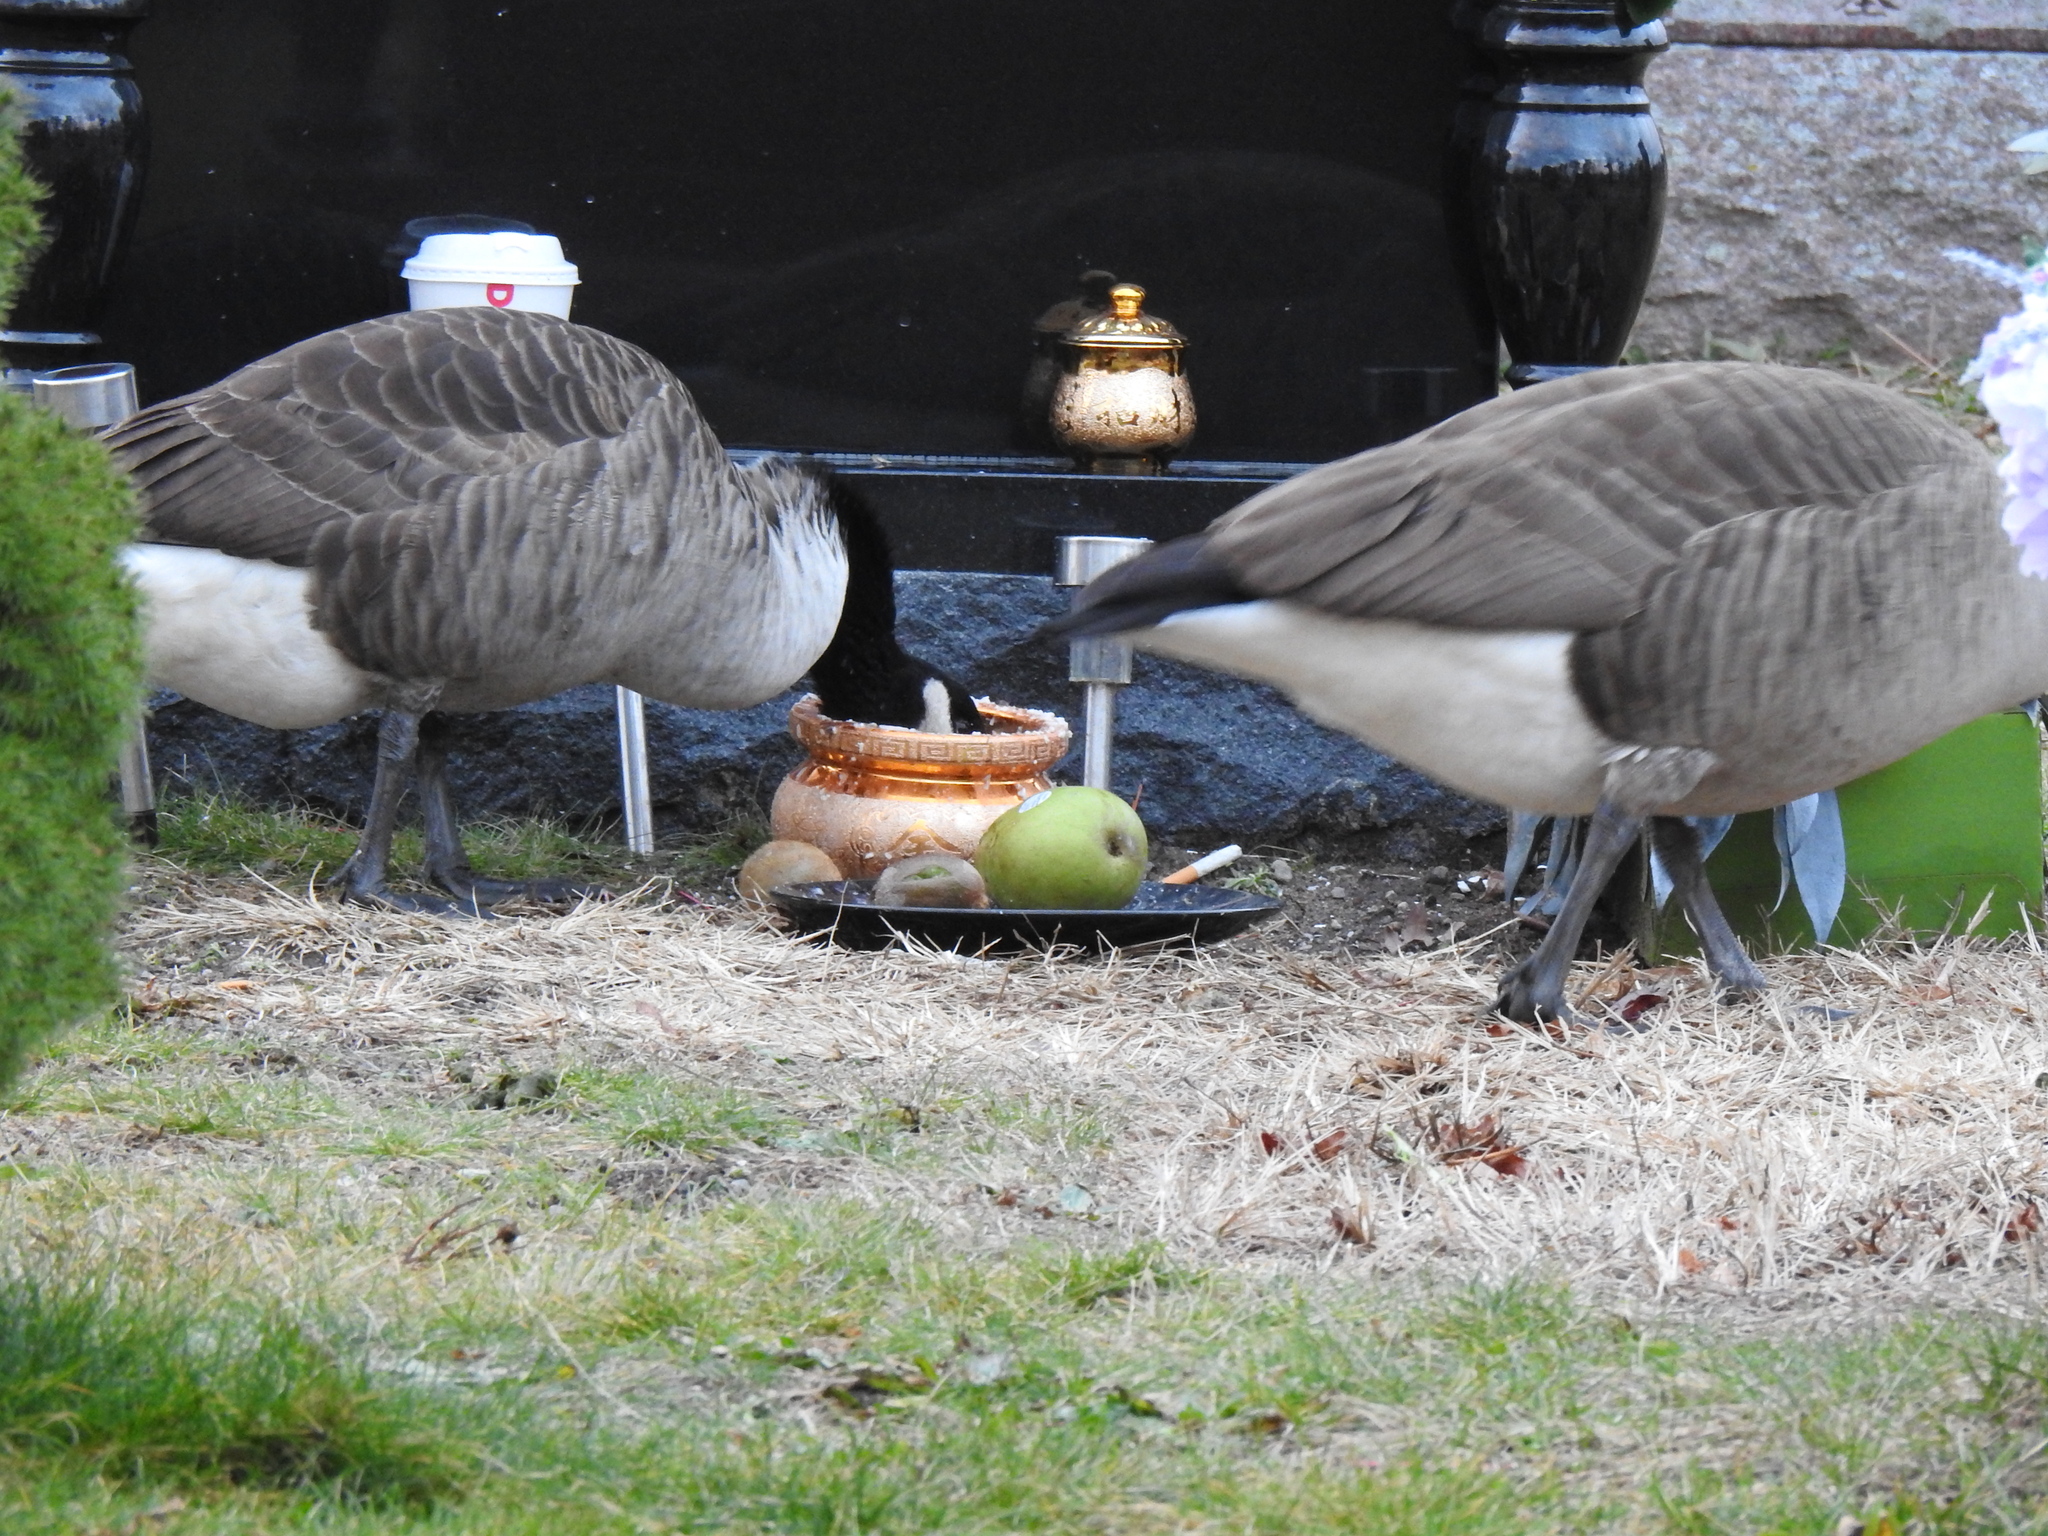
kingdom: Animalia
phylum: Chordata
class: Aves
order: Anseriformes
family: Anatidae
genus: Branta
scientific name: Branta canadensis
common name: Canada goose
